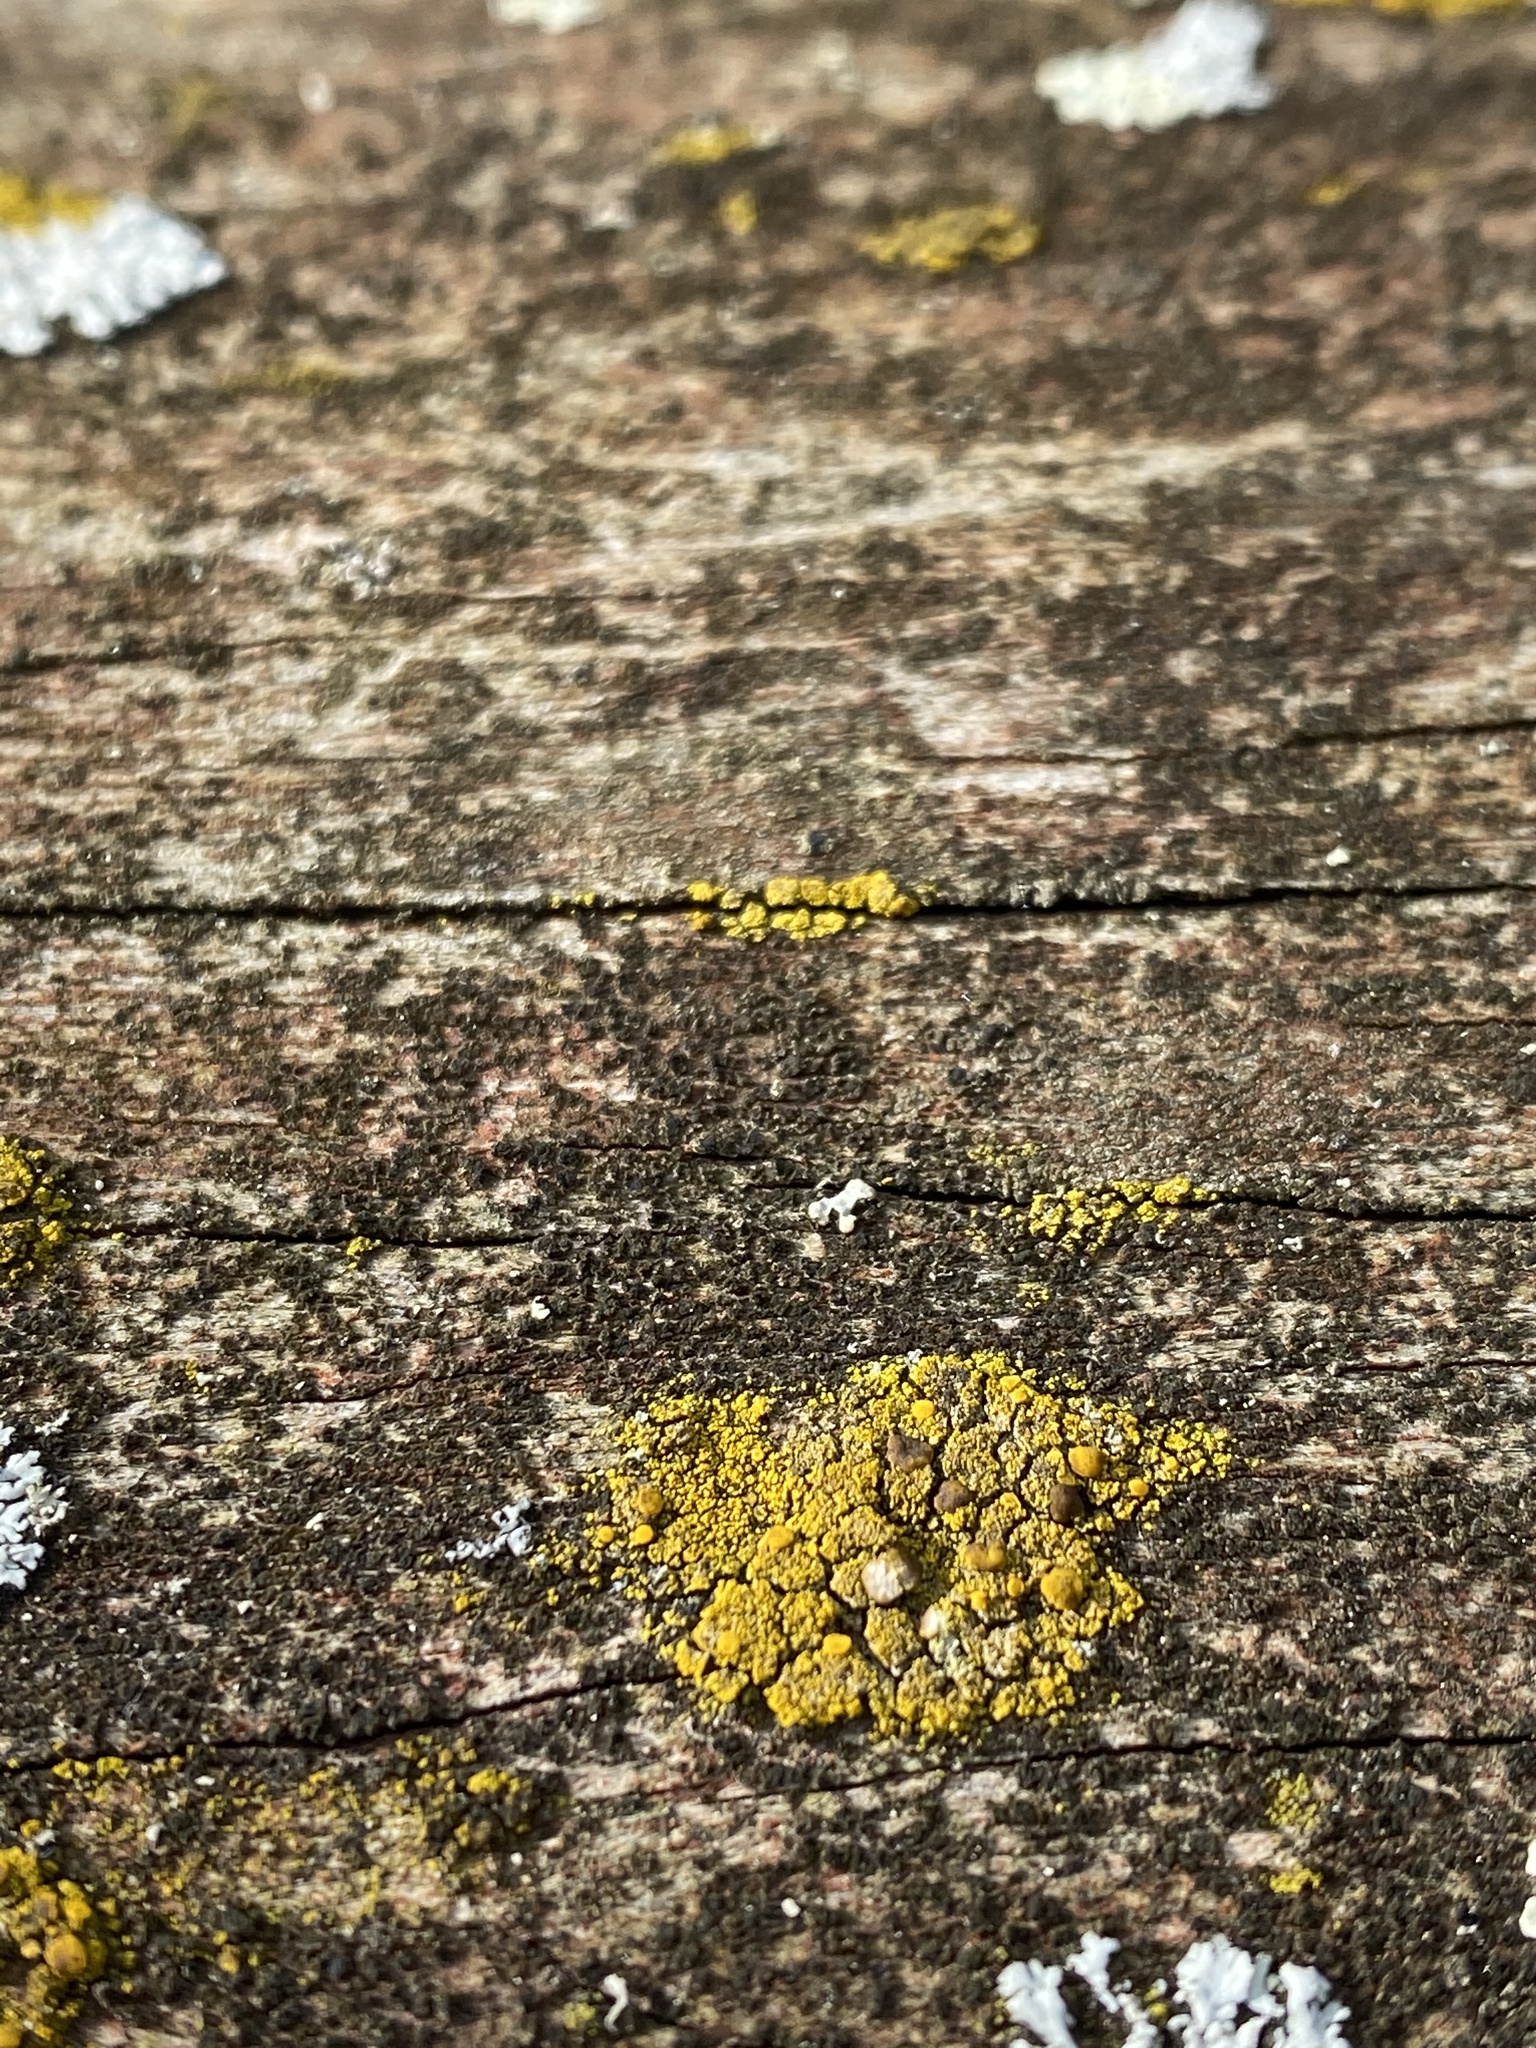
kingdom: Fungi
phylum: Ascomycota
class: Candelariomycetes
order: Candelariales
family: Candelariaceae
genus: Candelariella
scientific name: Candelariella vitellina
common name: Common goldspeck
